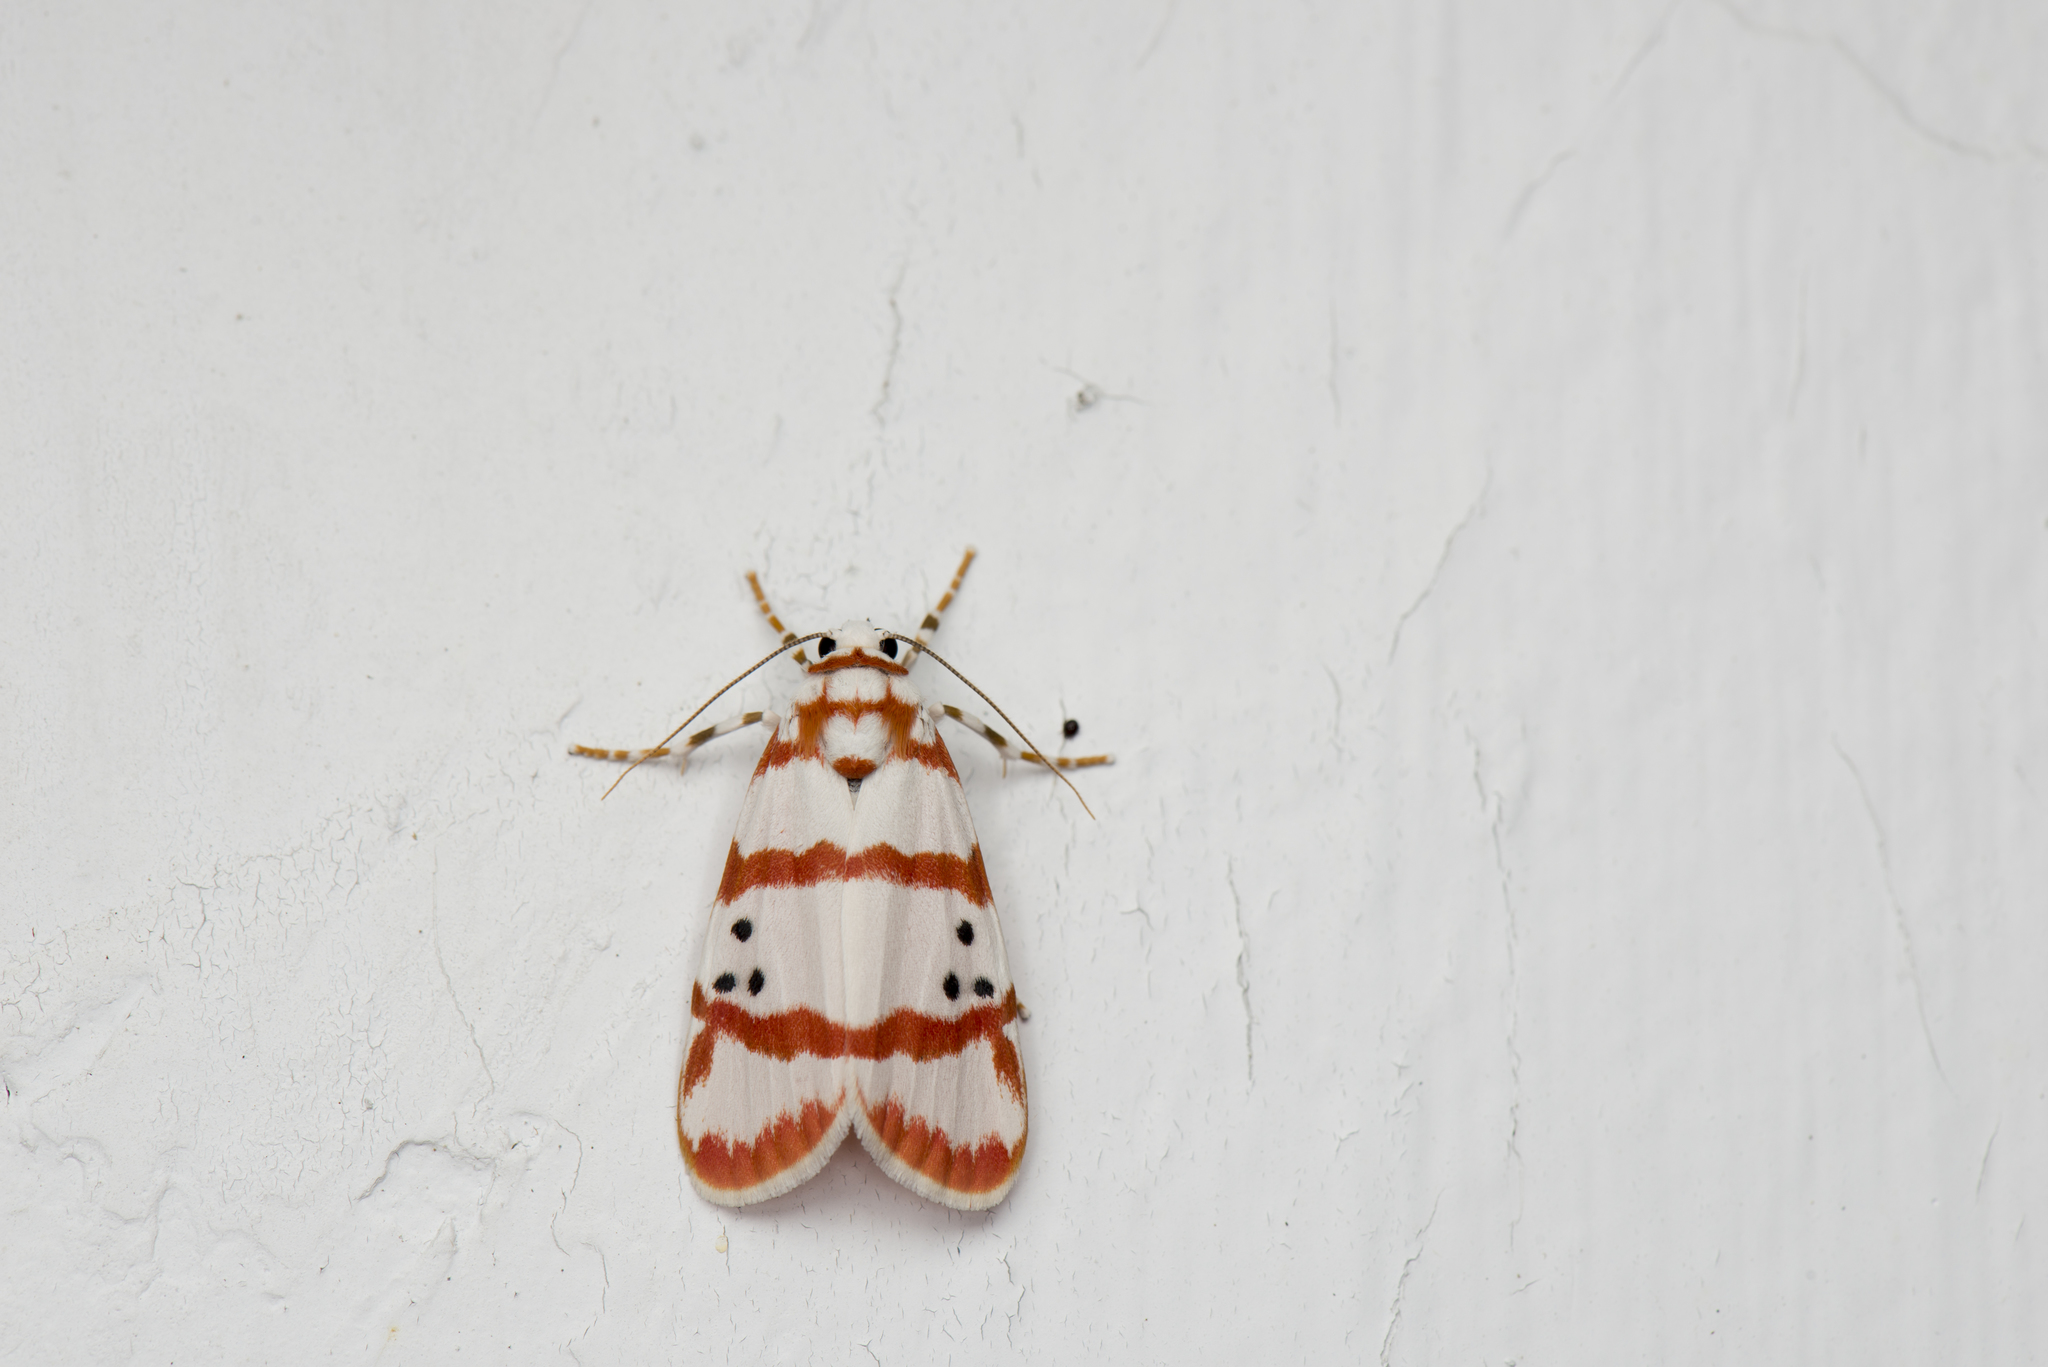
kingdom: Animalia
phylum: Arthropoda
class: Insecta
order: Lepidoptera
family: Erebidae
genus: Cyana
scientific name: Cyana quadripartita
